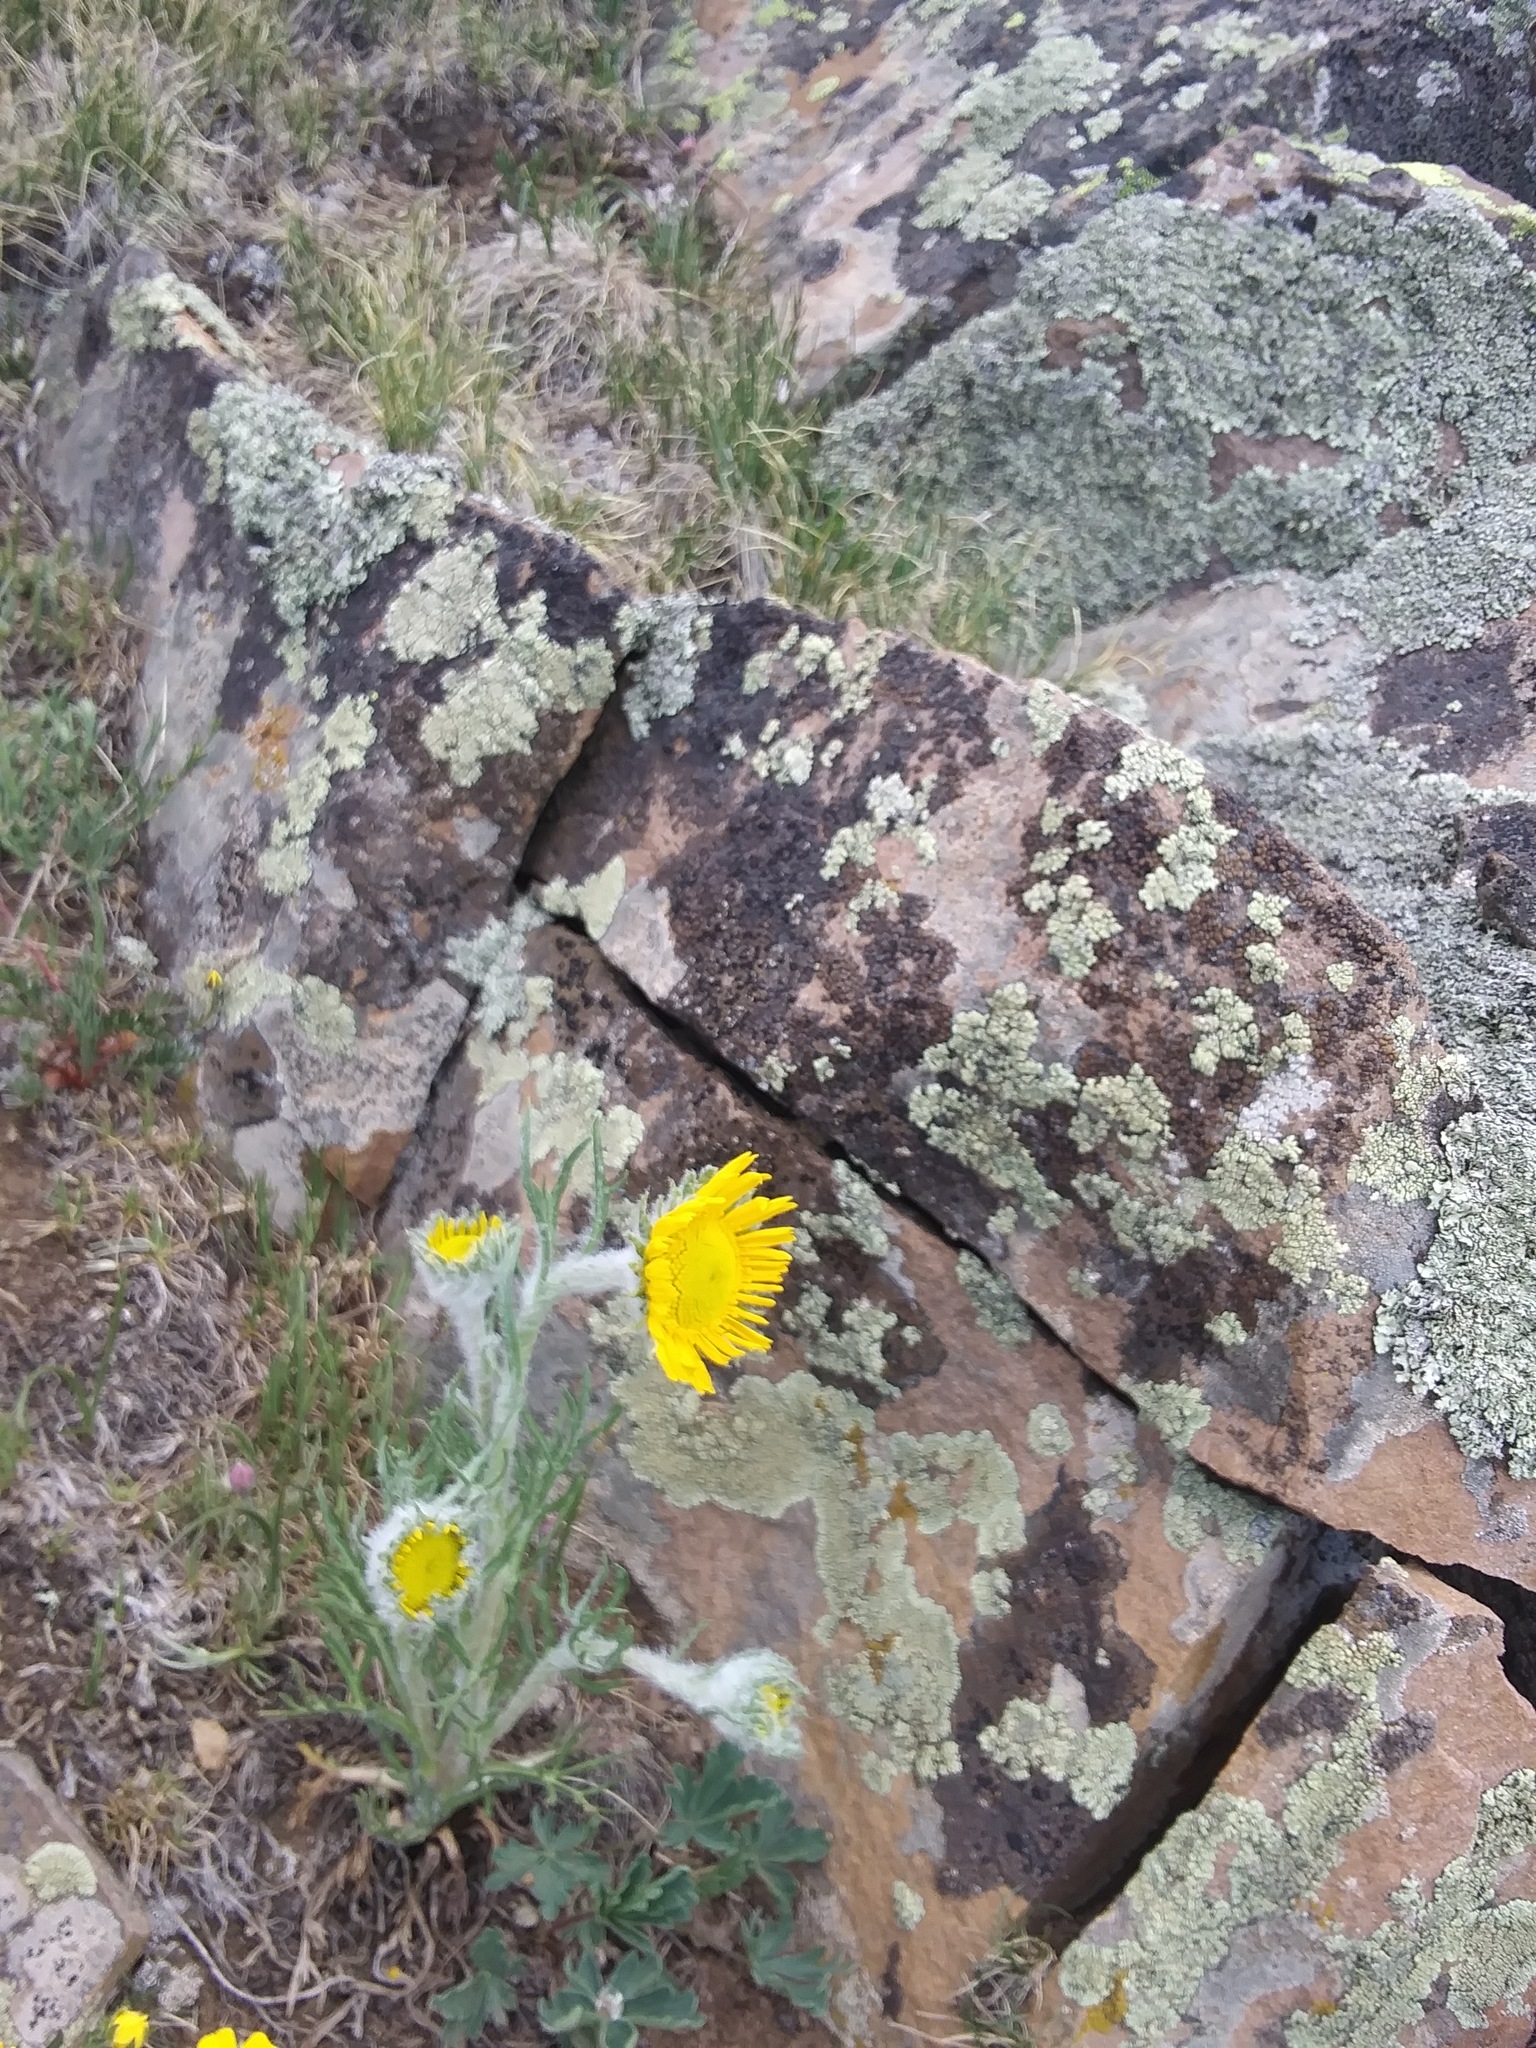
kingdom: Plantae
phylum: Tracheophyta
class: Magnoliopsida
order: Asterales
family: Asteraceae
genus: Hymenoxys
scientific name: Hymenoxys grandiflora
